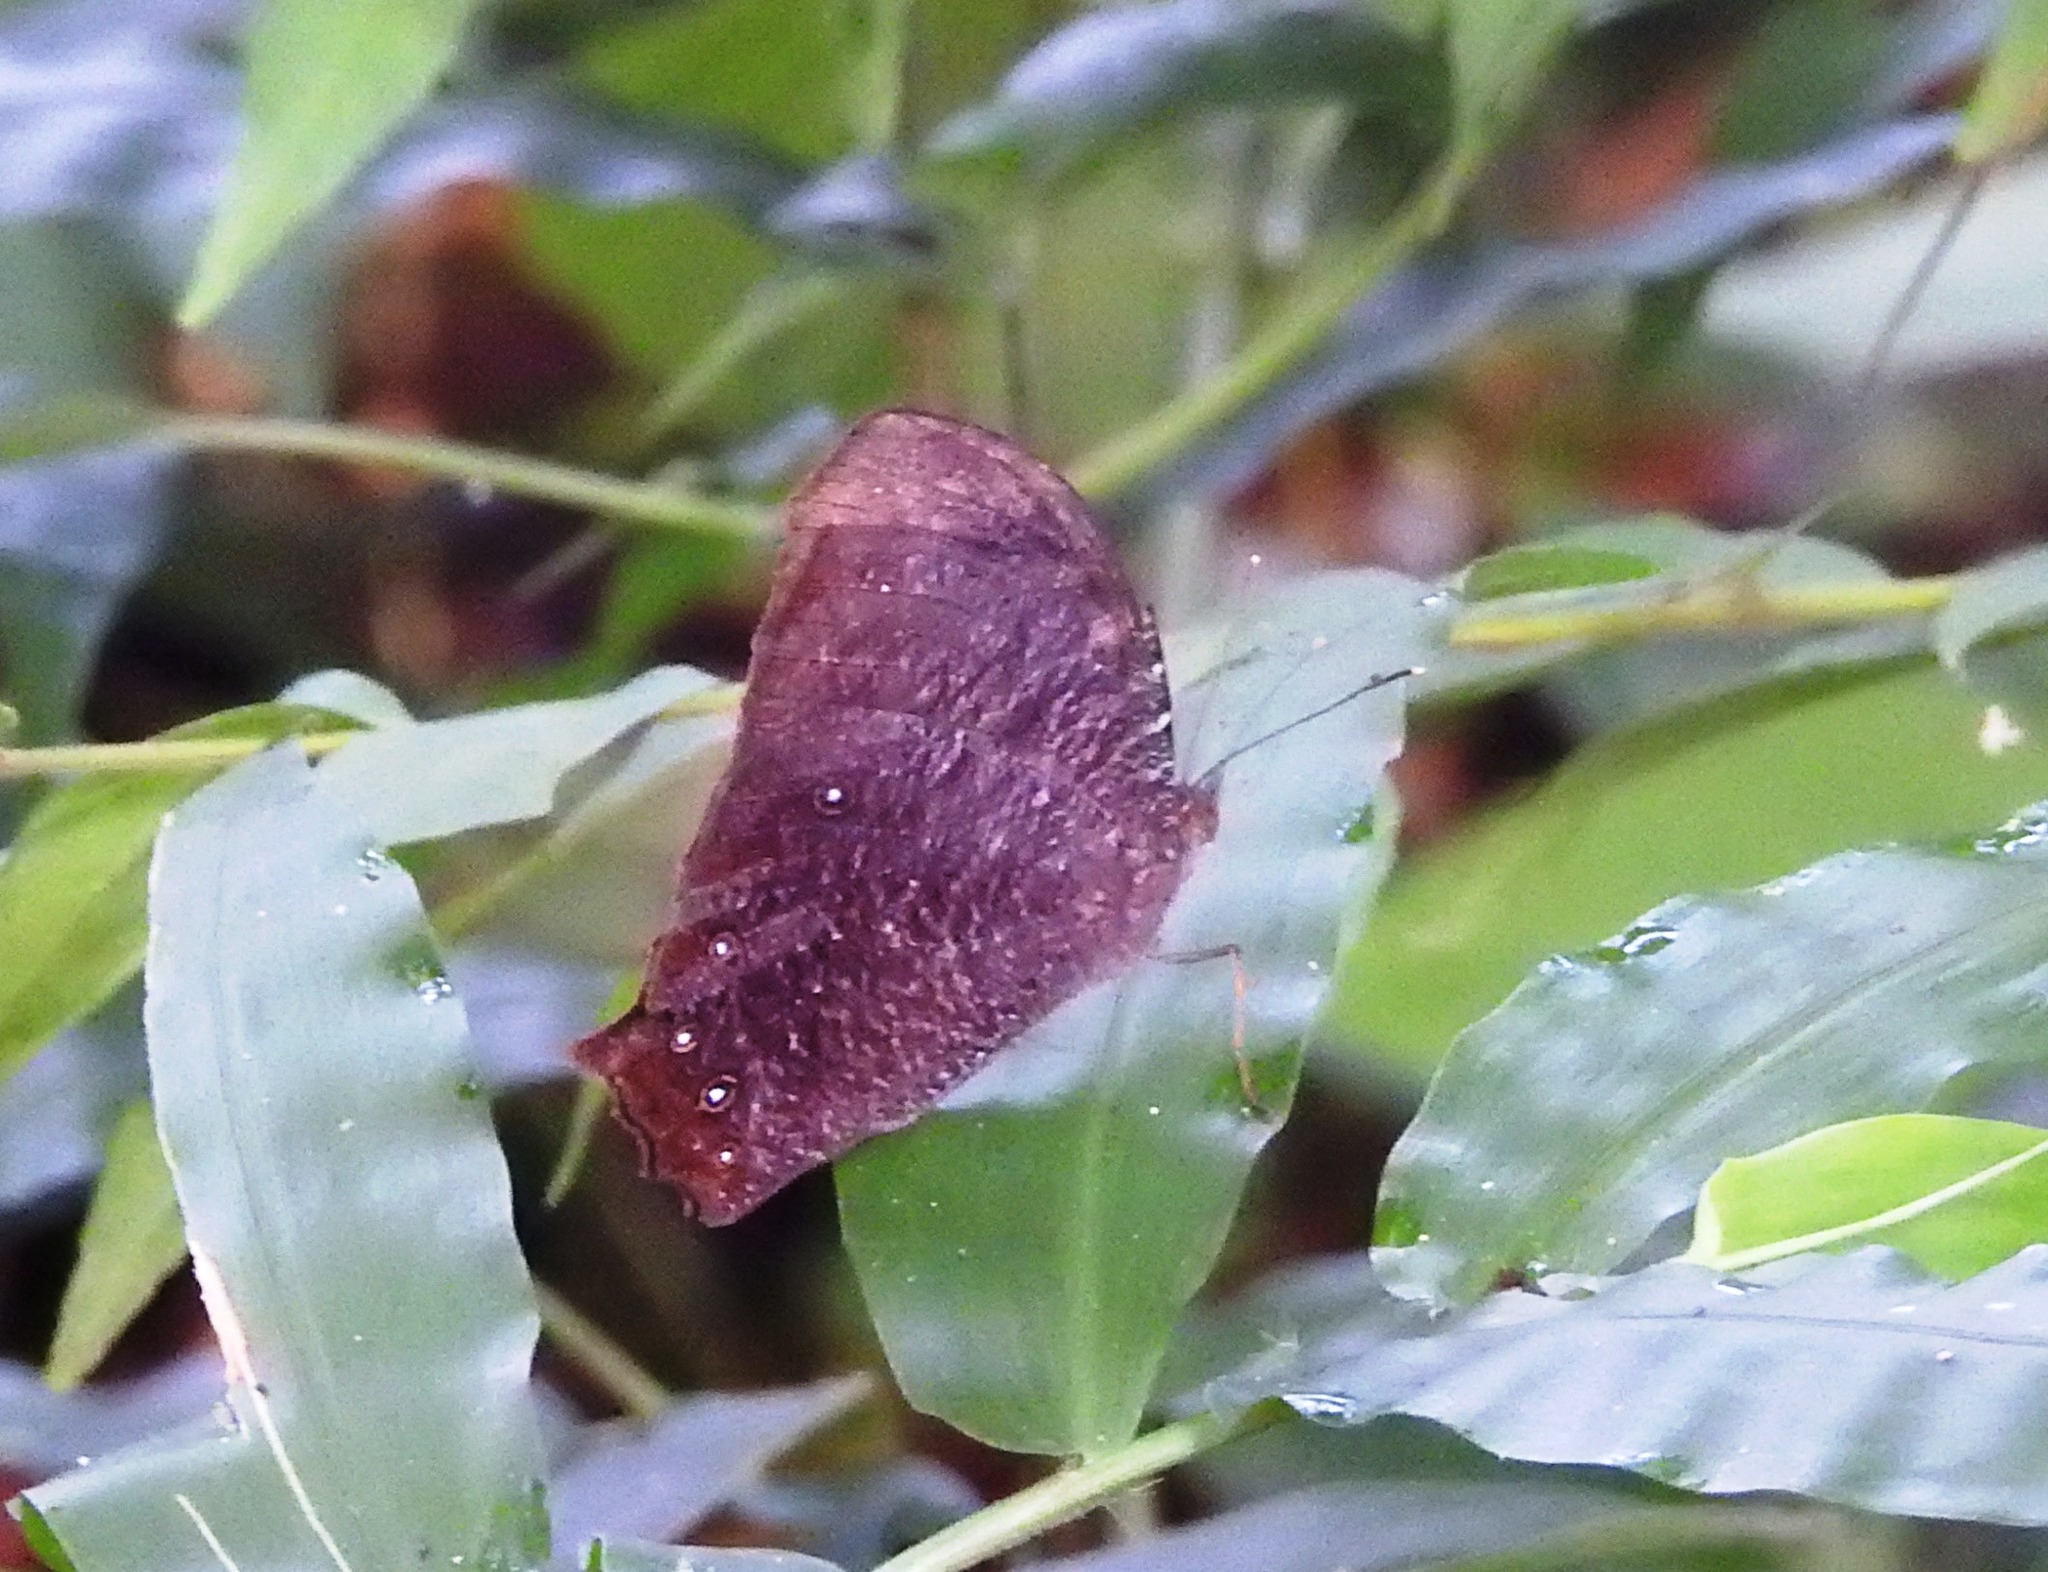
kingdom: Animalia
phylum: Arthropoda
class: Insecta
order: Lepidoptera
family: Nymphalidae
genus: Melanitis
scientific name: Melanitis phedima
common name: Dark evening brown
